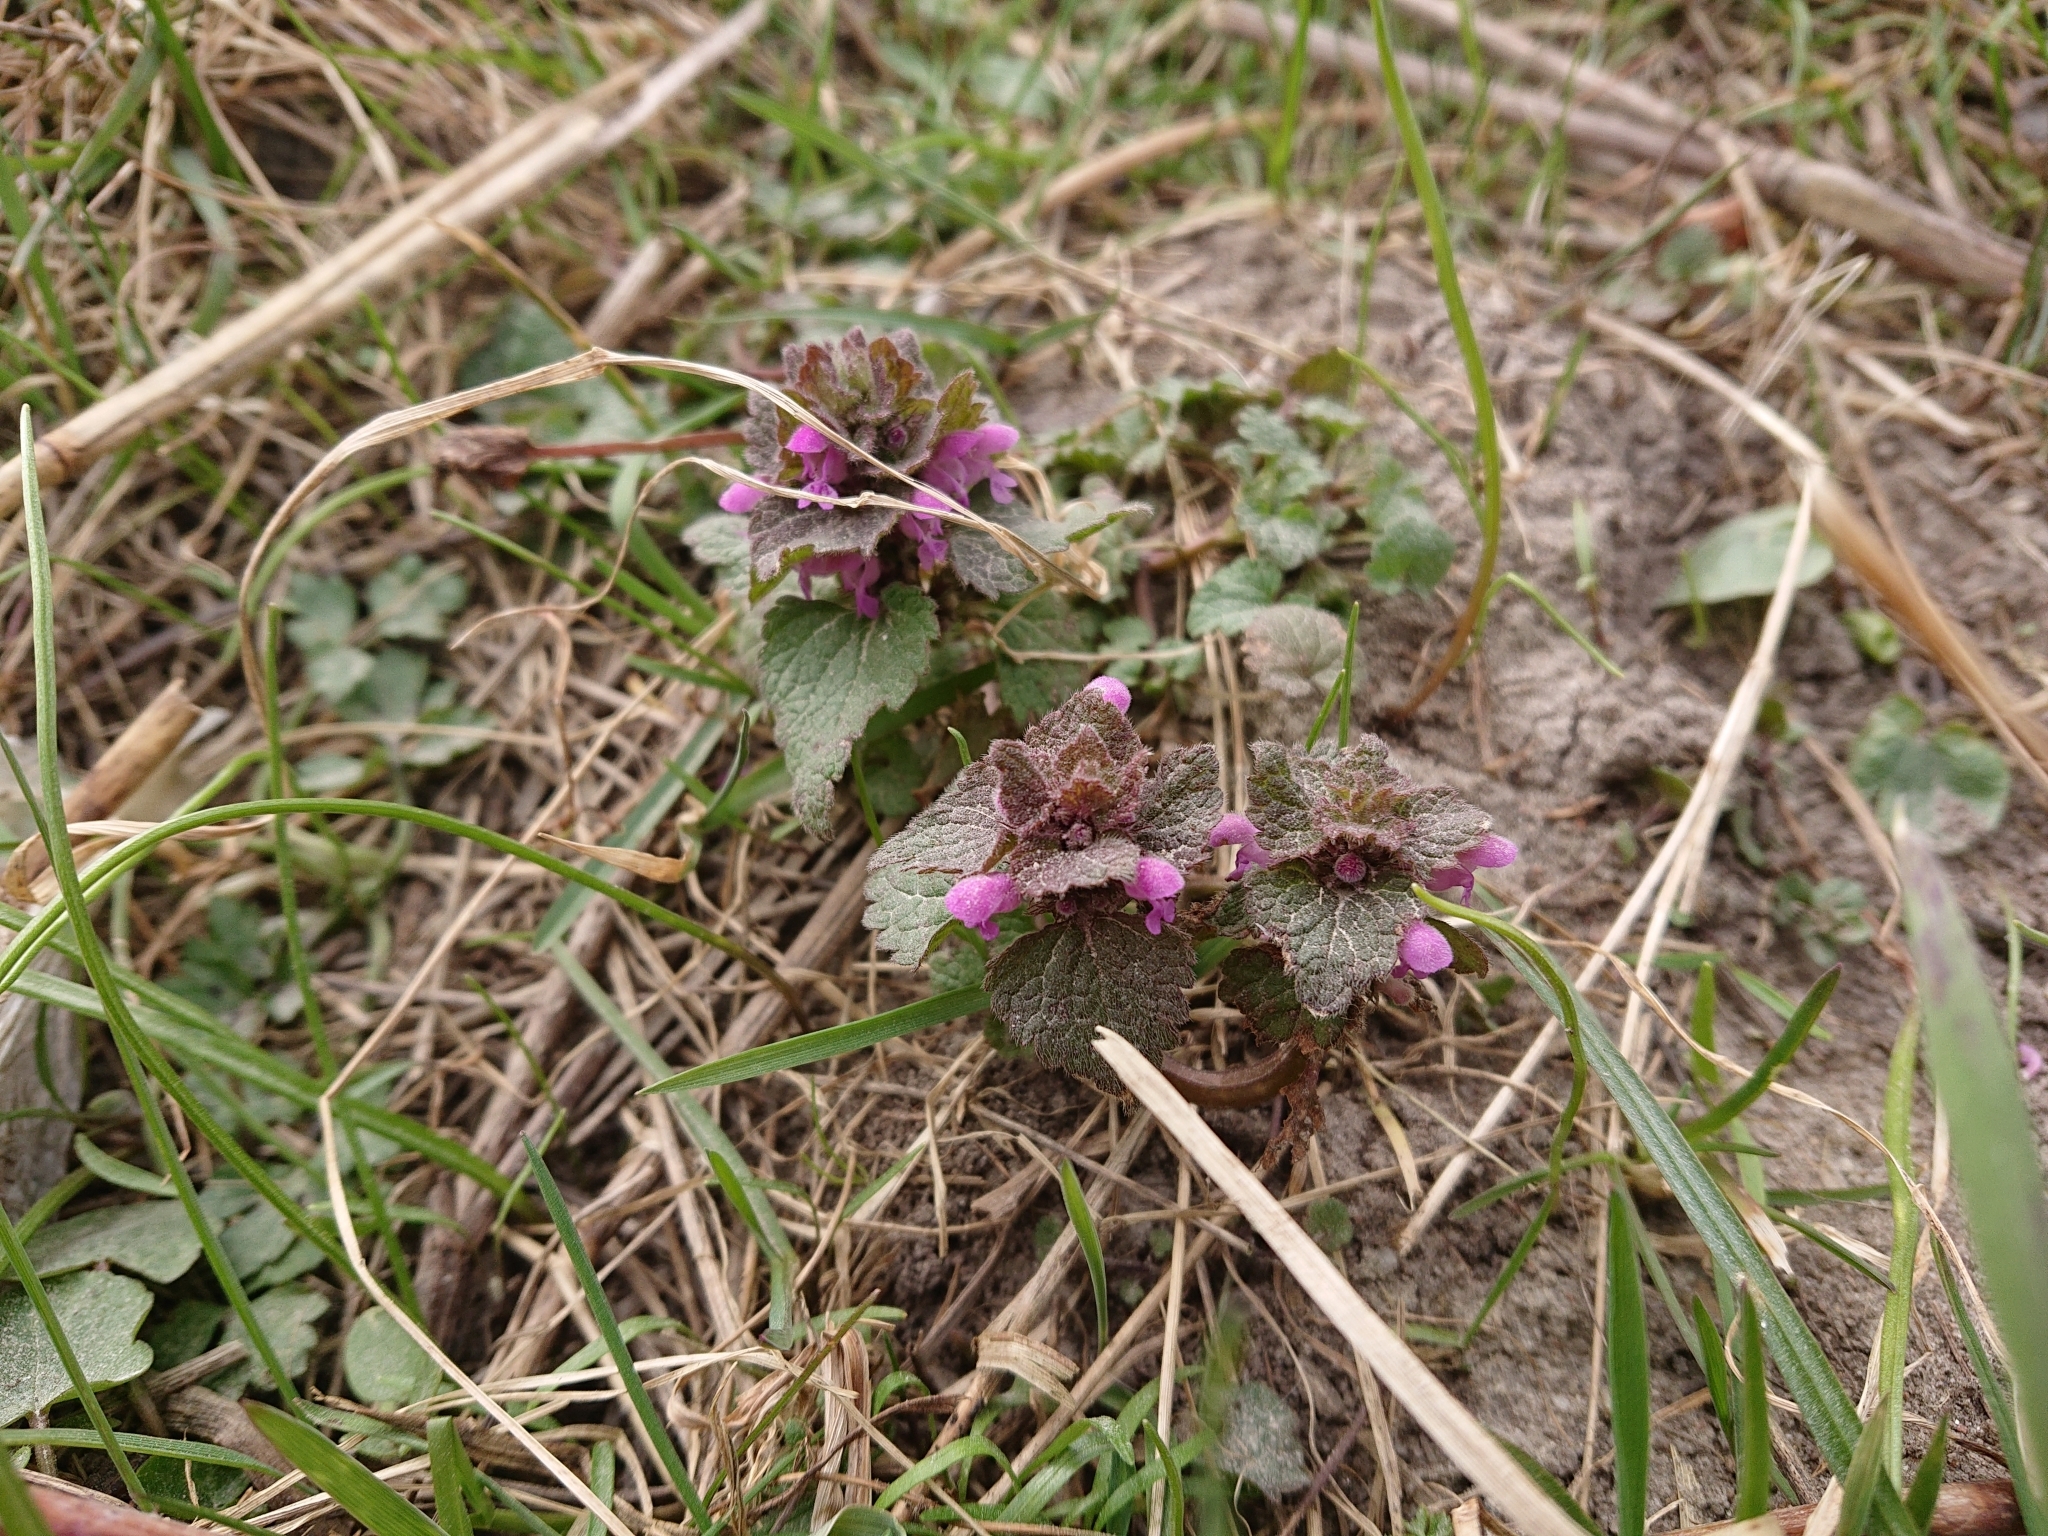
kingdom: Plantae
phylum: Tracheophyta
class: Magnoliopsida
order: Lamiales
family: Lamiaceae
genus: Lamium
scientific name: Lamium purpureum
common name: Red dead-nettle
